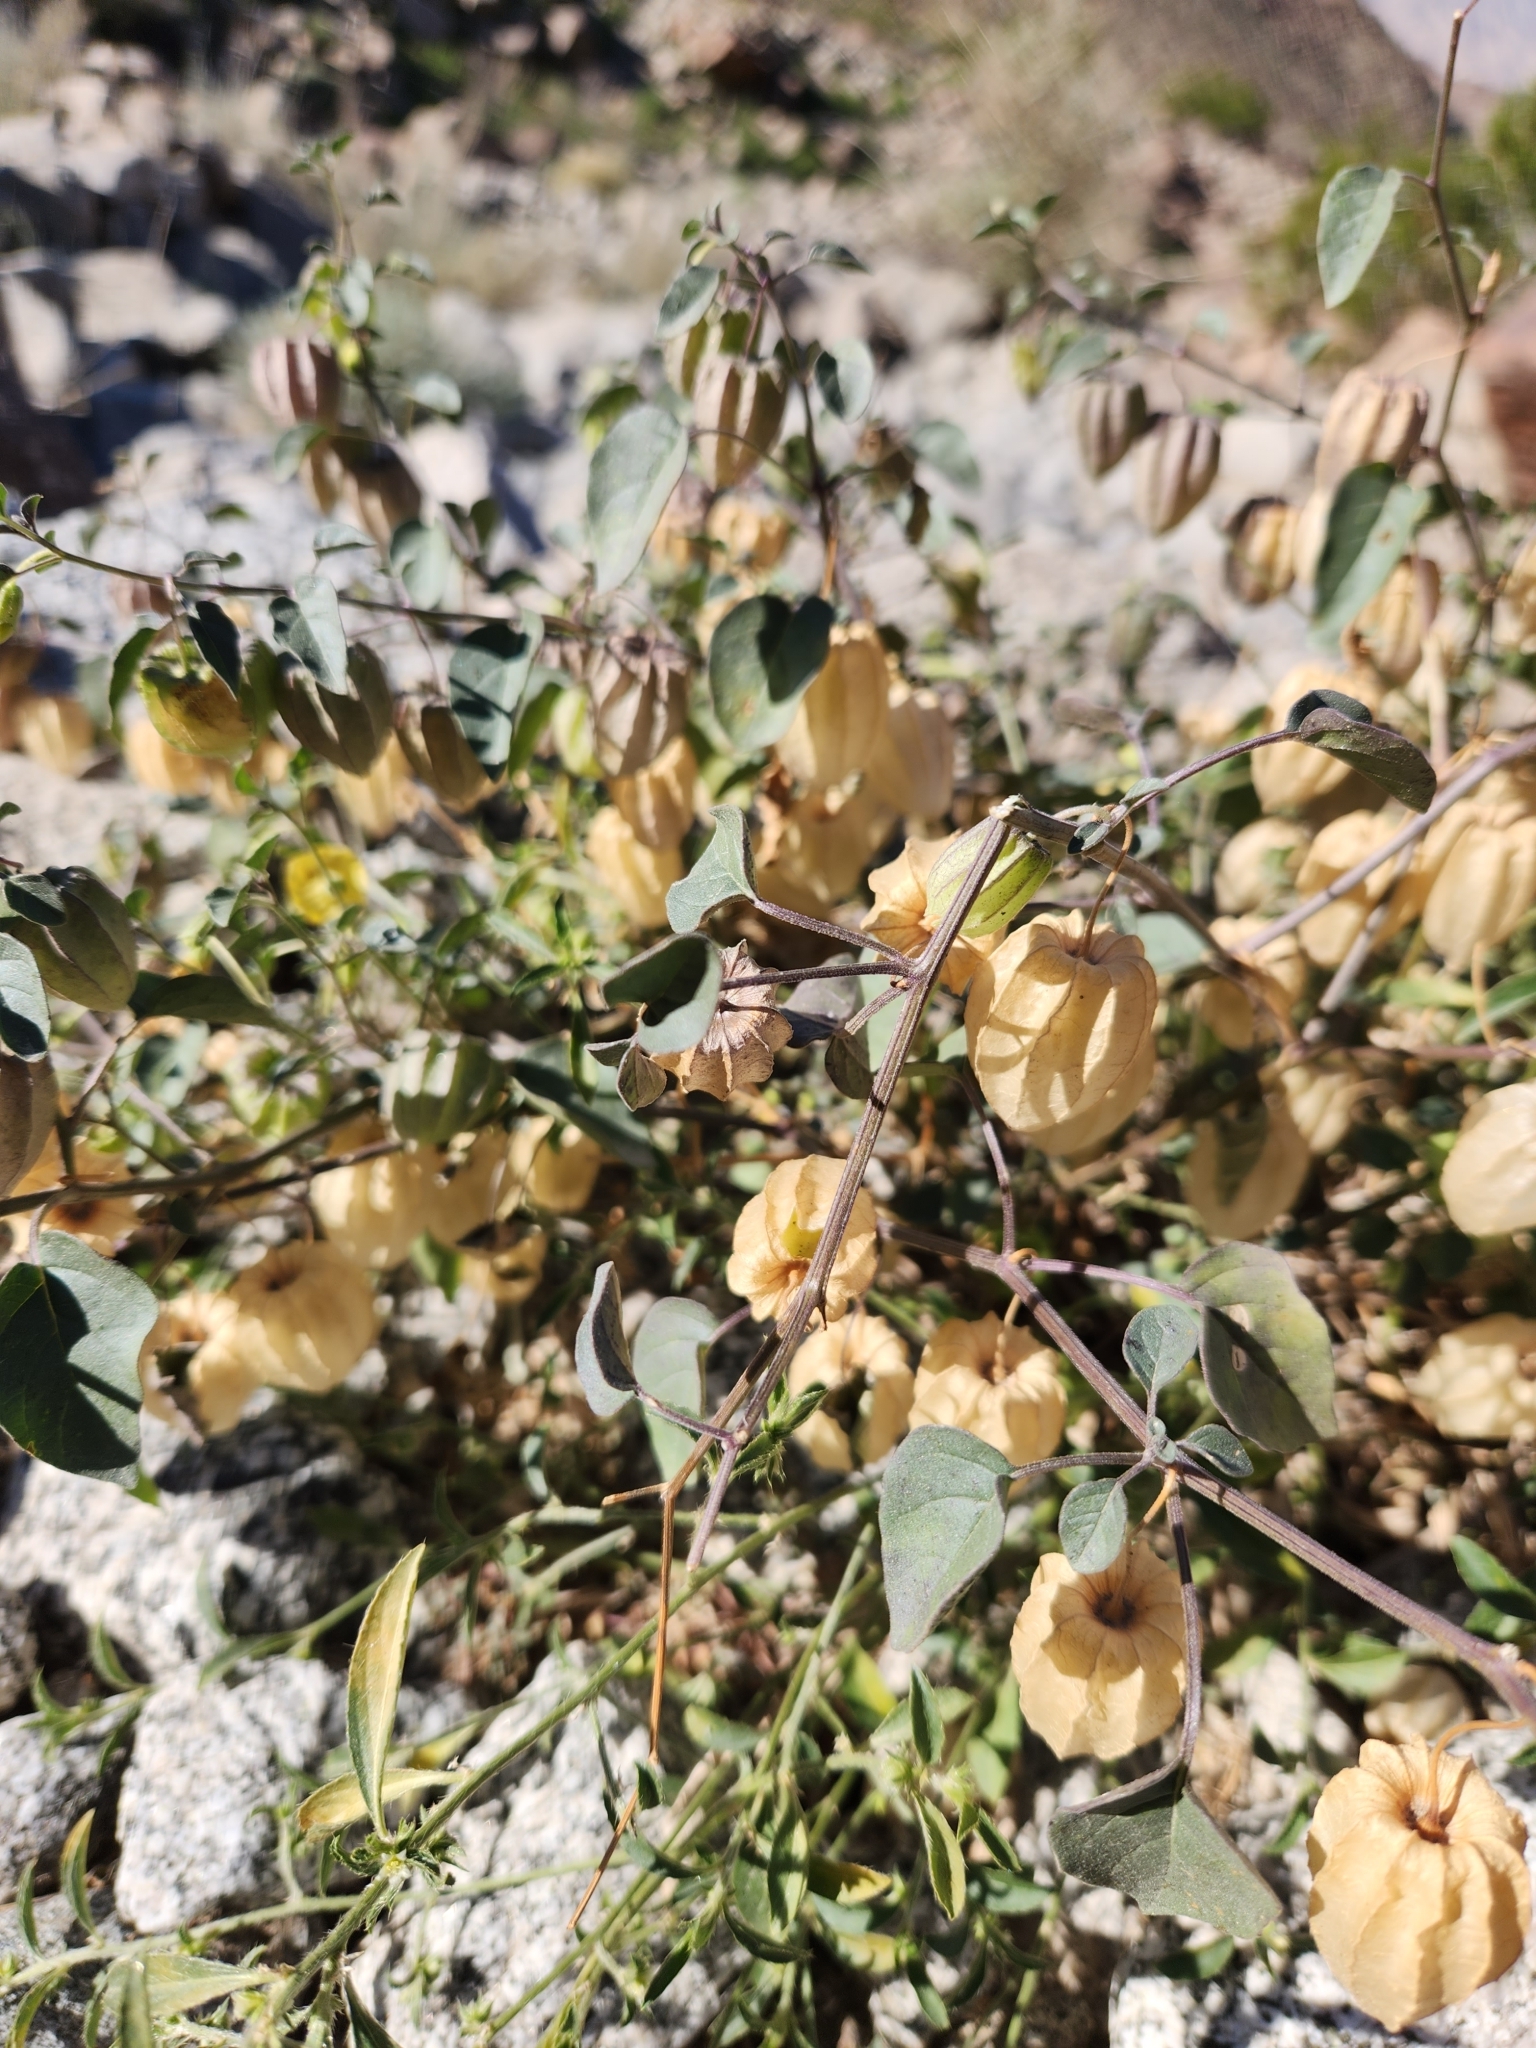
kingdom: Plantae
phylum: Tracheophyta
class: Magnoliopsida
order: Solanales
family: Solanaceae
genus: Physalis
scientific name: Physalis crassifolia
